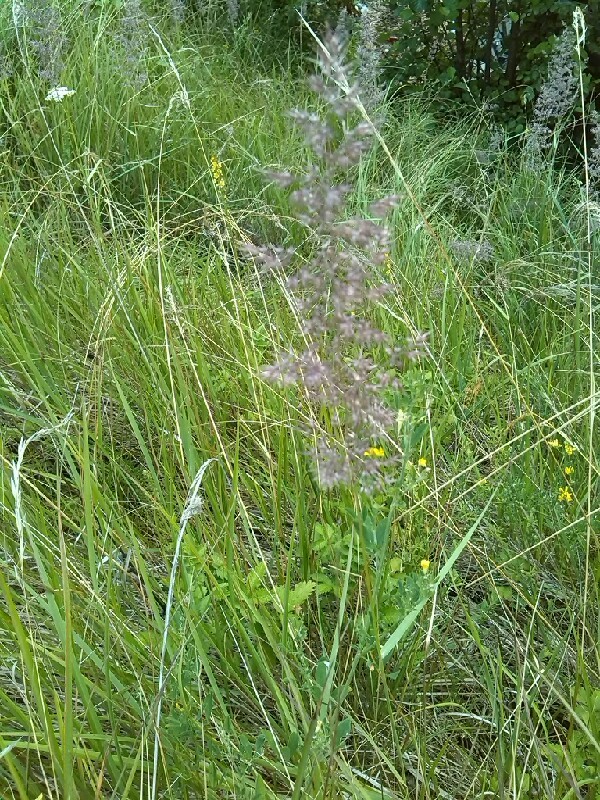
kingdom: Plantae
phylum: Tracheophyta
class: Liliopsida
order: Poales
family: Poaceae
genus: Calamagrostis
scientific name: Calamagrostis epigejos
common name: Wood small-reed
